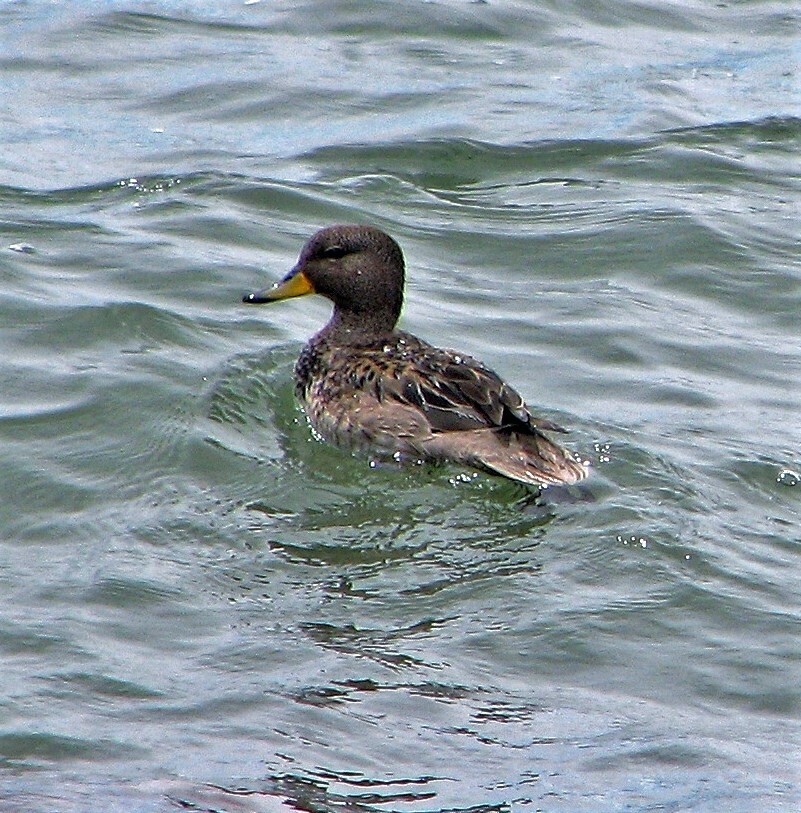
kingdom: Animalia
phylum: Chordata
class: Aves
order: Anseriformes
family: Anatidae
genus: Anas
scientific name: Anas flavirostris
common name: Yellow-billed teal
